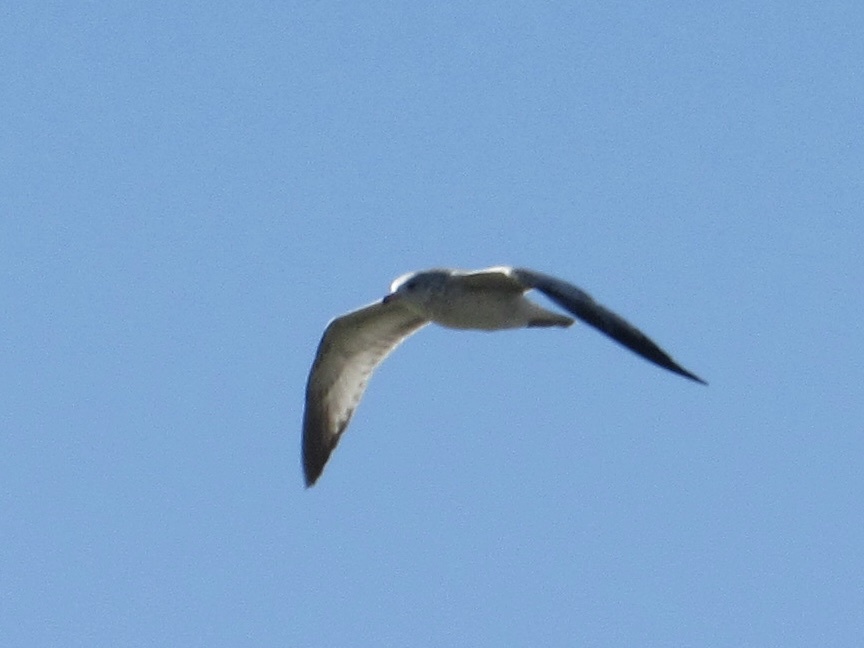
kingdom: Animalia
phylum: Chordata
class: Aves
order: Charadriiformes
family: Laridae
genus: Larus
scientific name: Larus delawarensis
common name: Ring-billed gull
